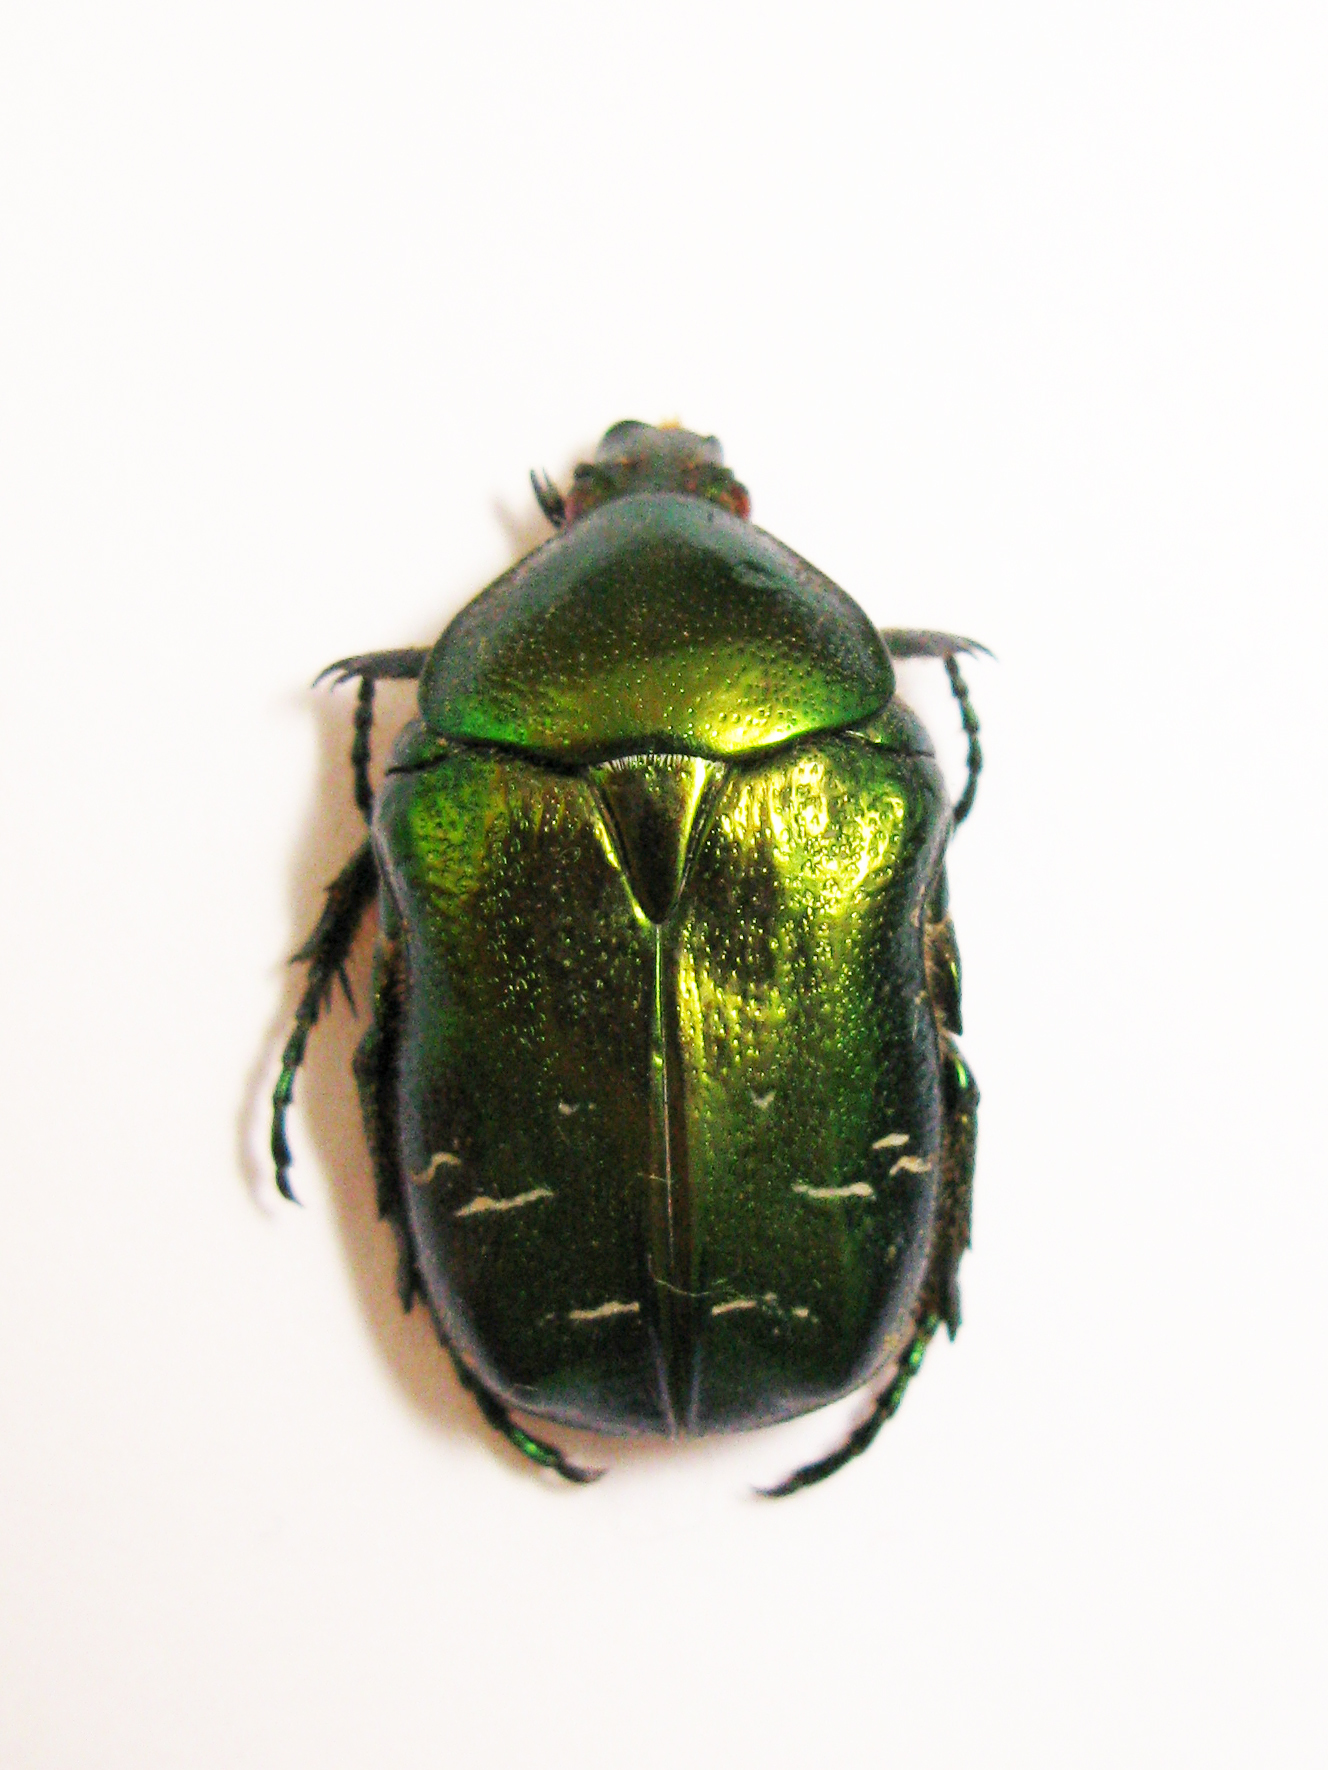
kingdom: Animalia
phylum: Arthropoda
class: Insecta
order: Coleoptera
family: Scarabaeidae
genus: Cetonia
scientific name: Cetonia aurata
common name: Rose chafer
